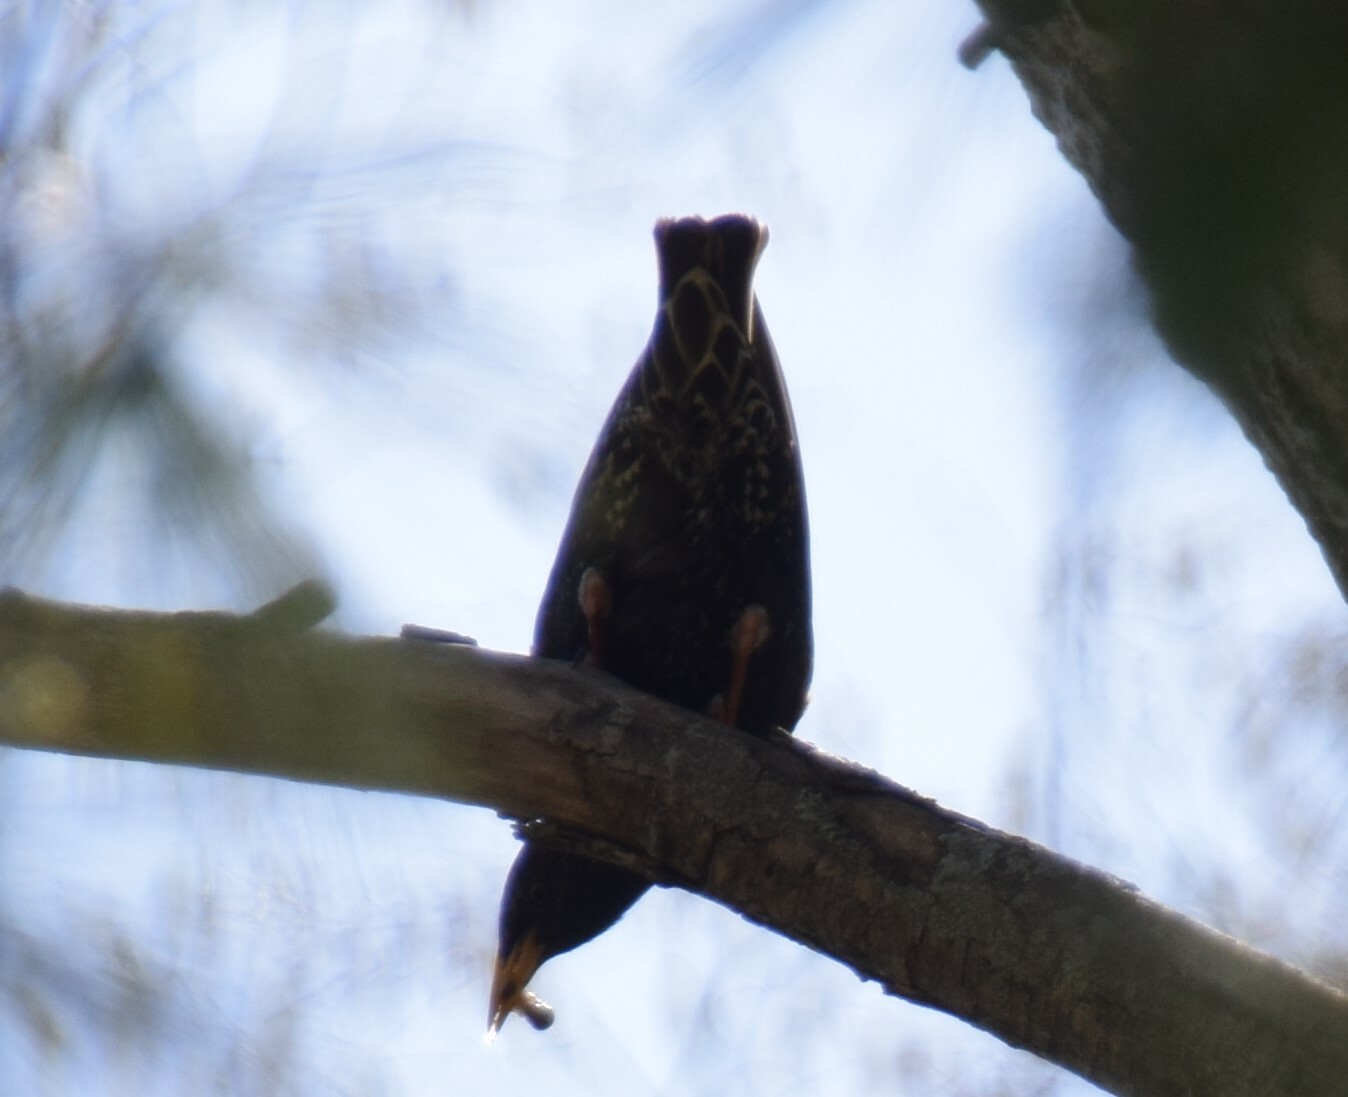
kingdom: Animalia
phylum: Chordata
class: Aves
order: Passeriformes
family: Sturnidae
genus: Sturnus
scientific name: Sturnus vulgaris
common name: Common starling
